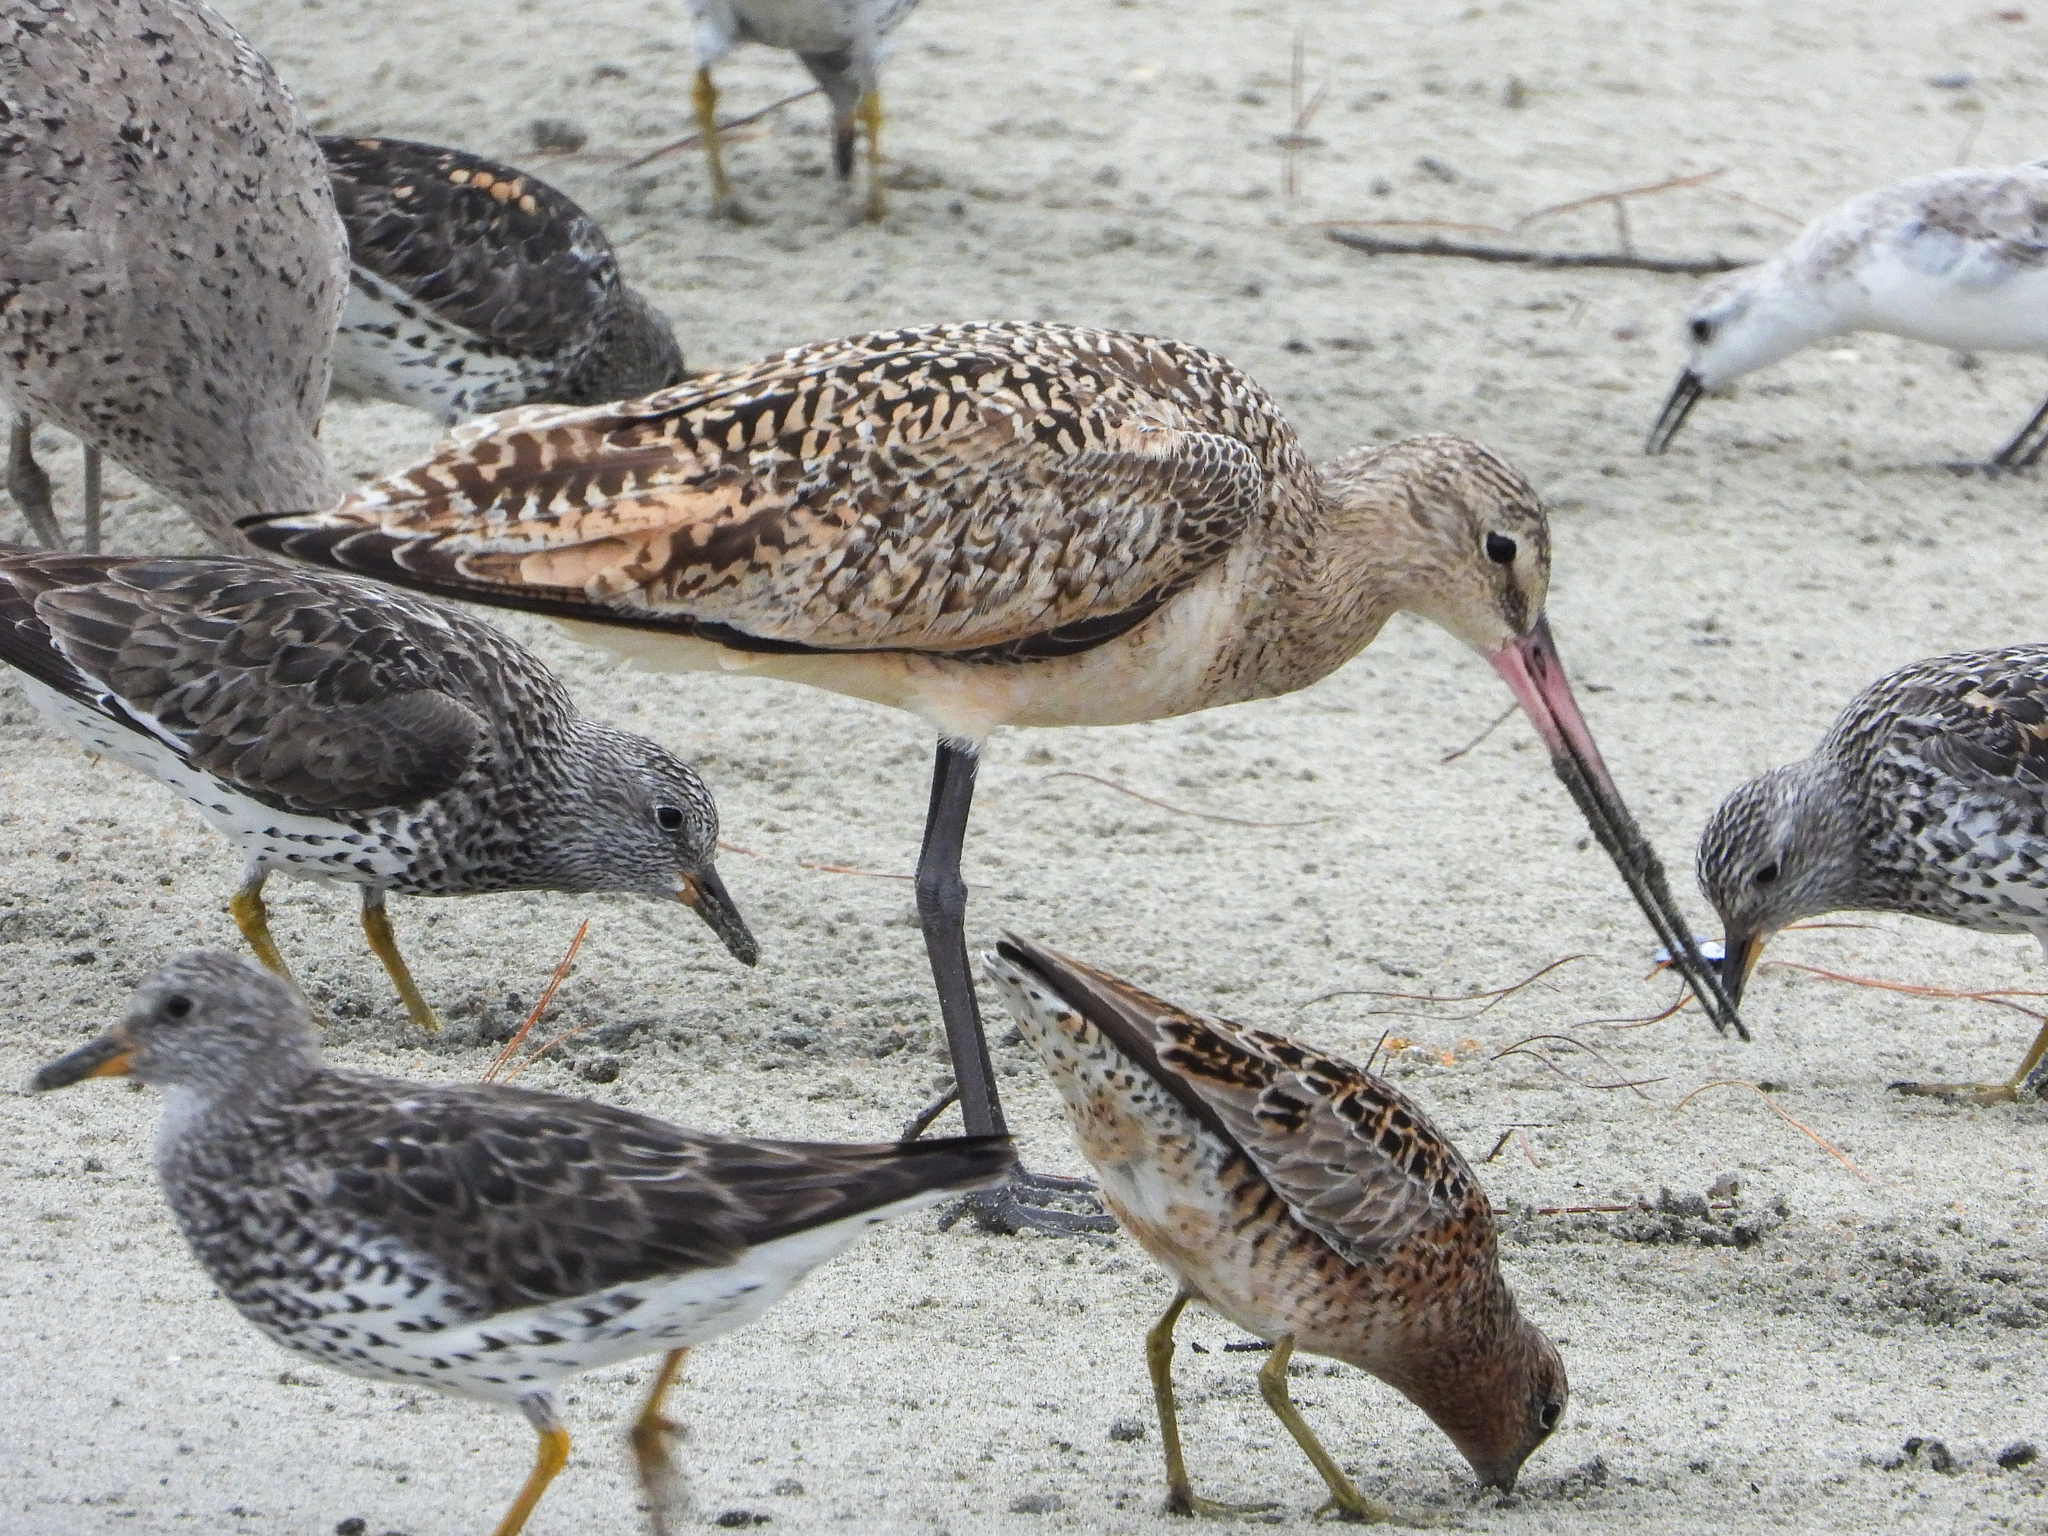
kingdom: Animalia
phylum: Chordata
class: Aves
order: Charadriiformes
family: Scolopacidae
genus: Limosa
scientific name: Limosa fedoa
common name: Marbled godwit
